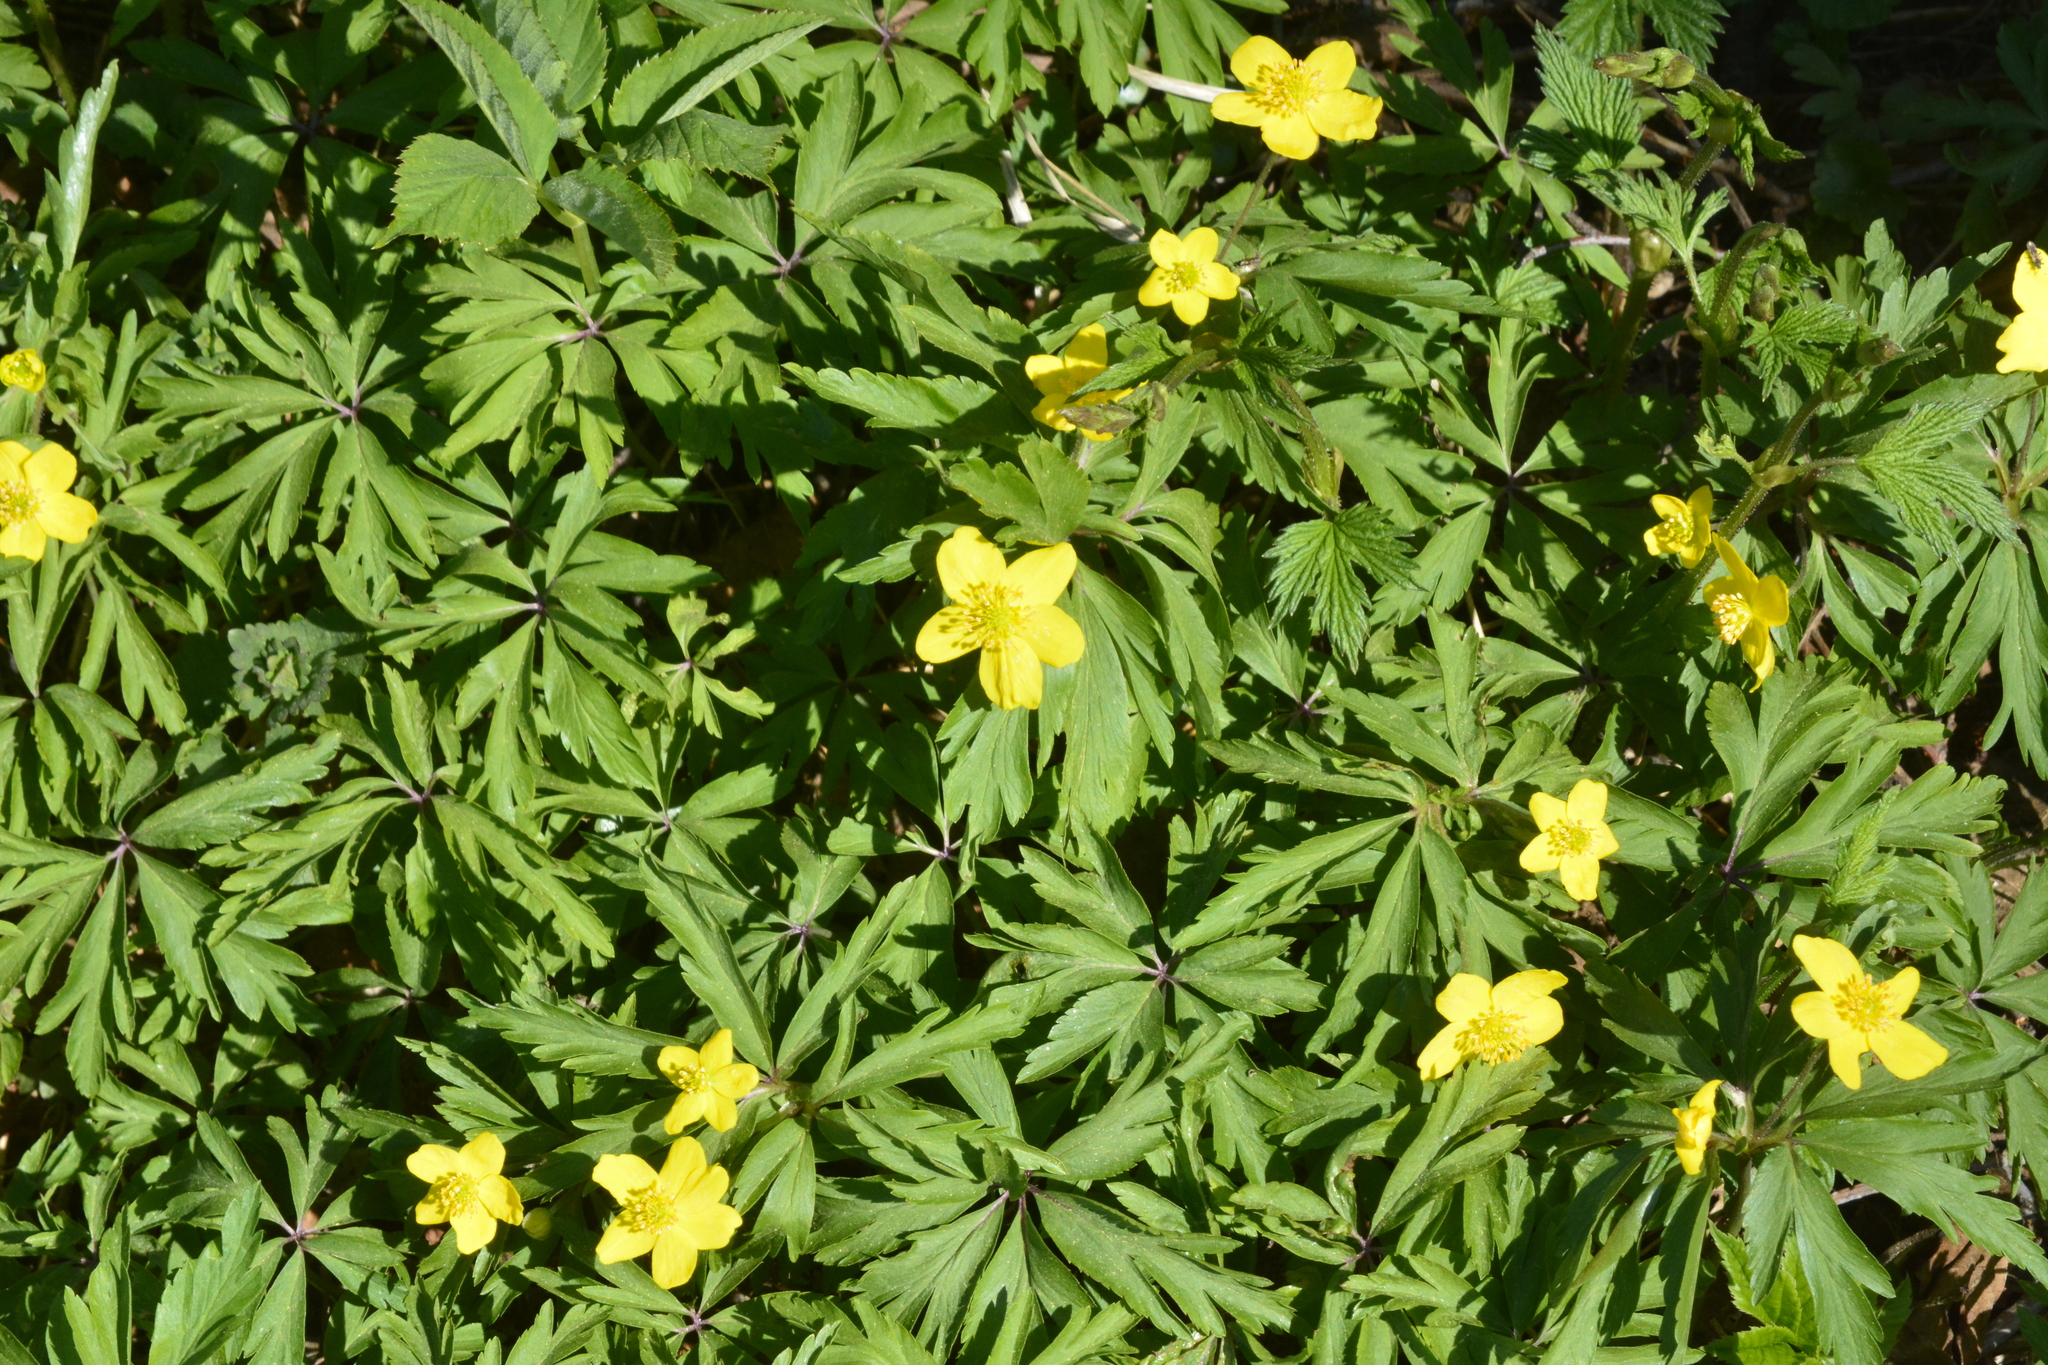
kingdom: Plantae
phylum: Tracheophyta
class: Magnoliopsida
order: Ranunculales
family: Ranunculaceae
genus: Anemone
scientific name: Anemone ranunculoides
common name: Yellow anemone
